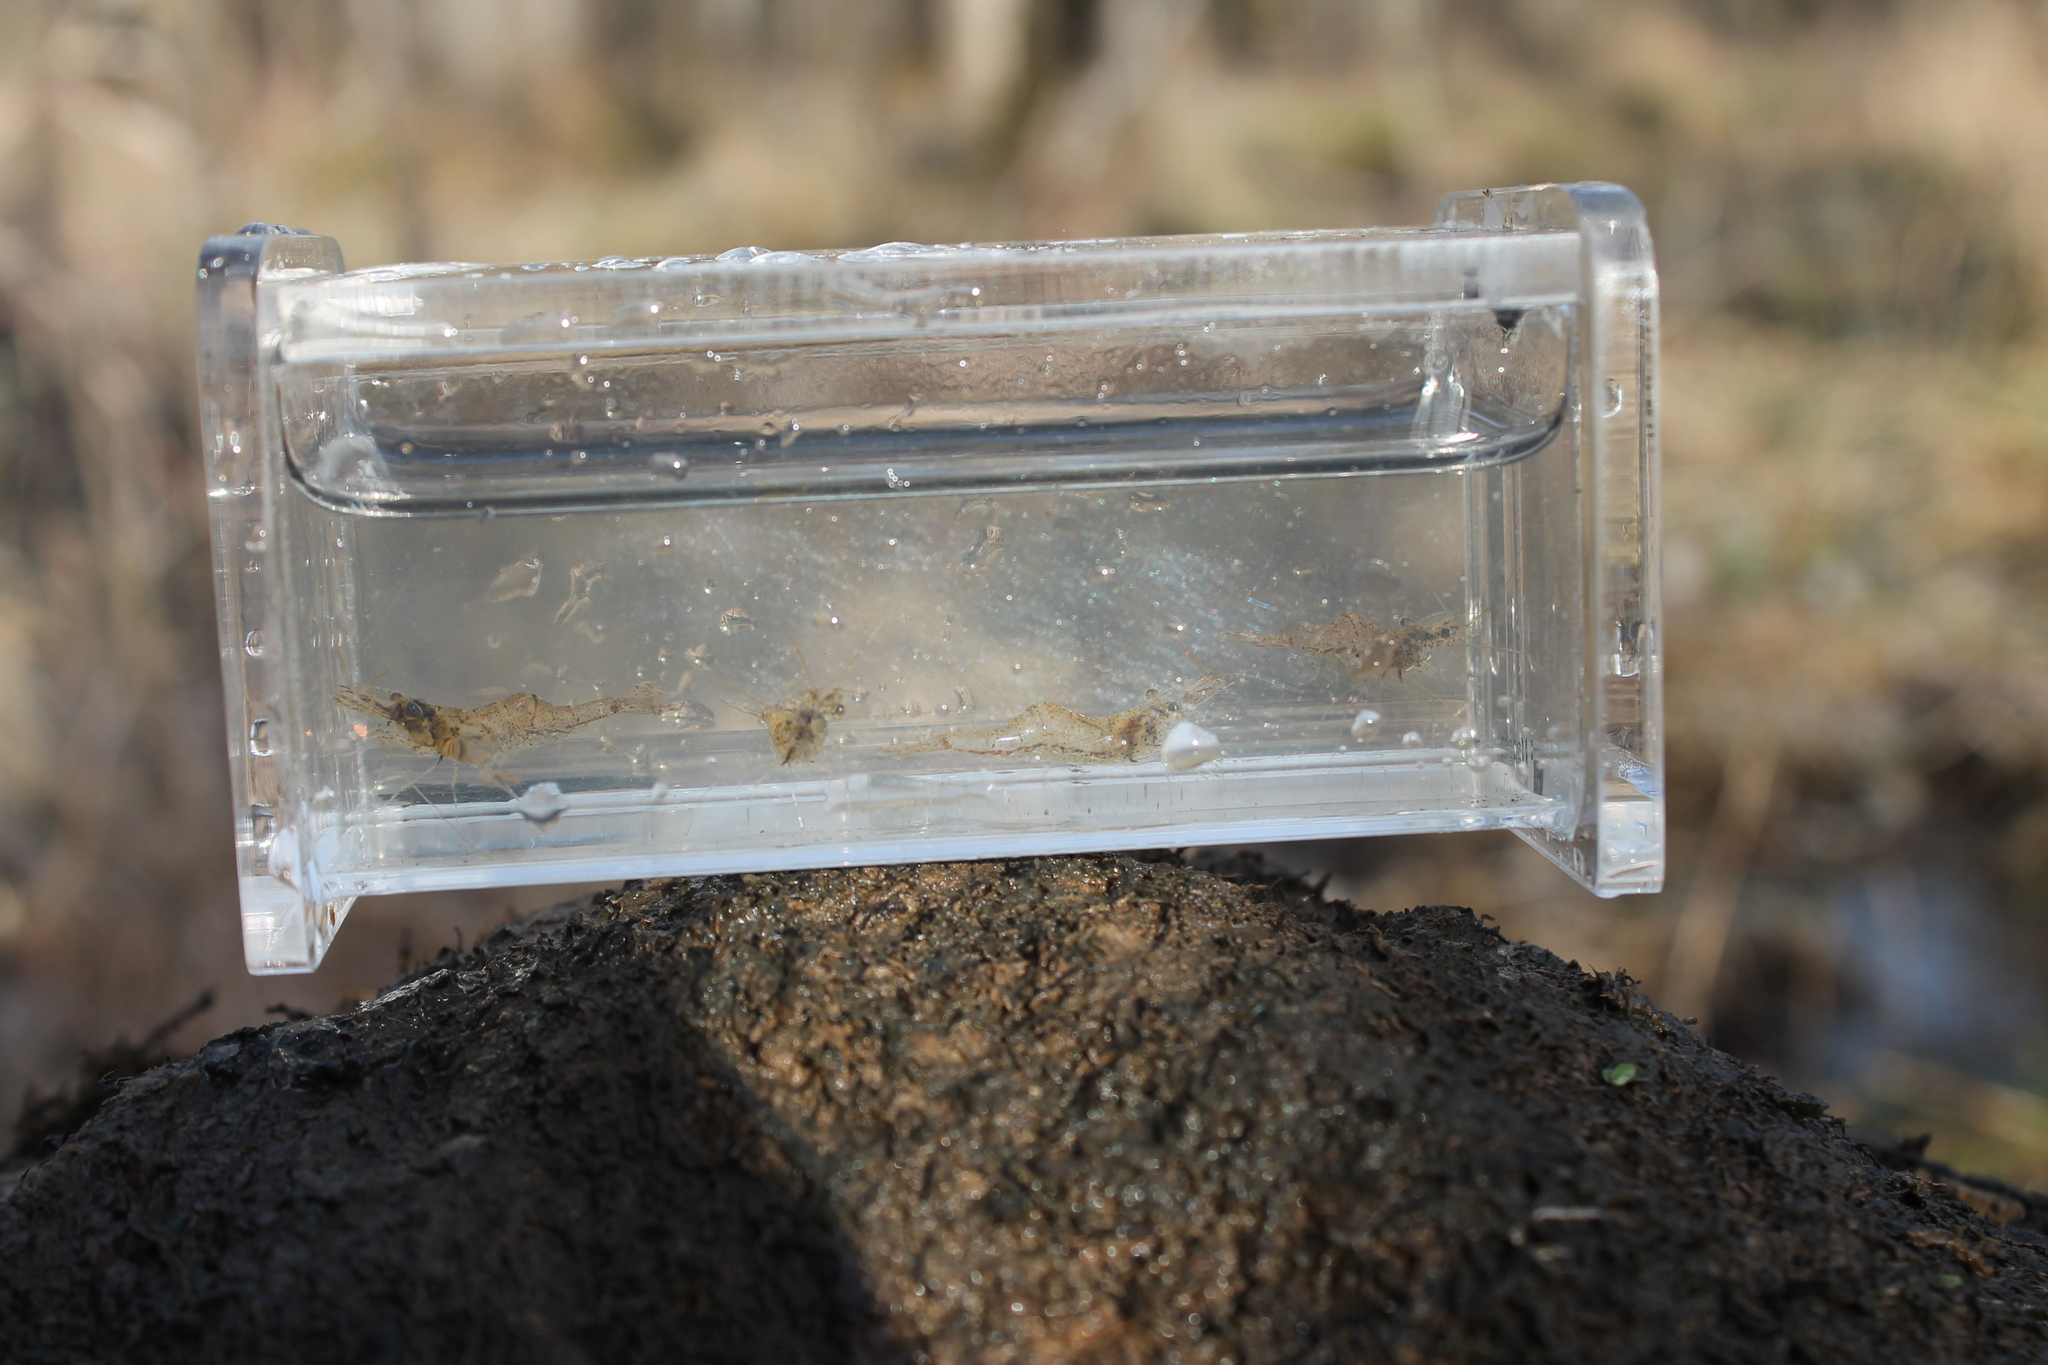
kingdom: Animalia
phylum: Arthropoda
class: Malacostraca
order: Decapoda
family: Palaemonidae
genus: Palaemon
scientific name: Palaemon kadiakensis
